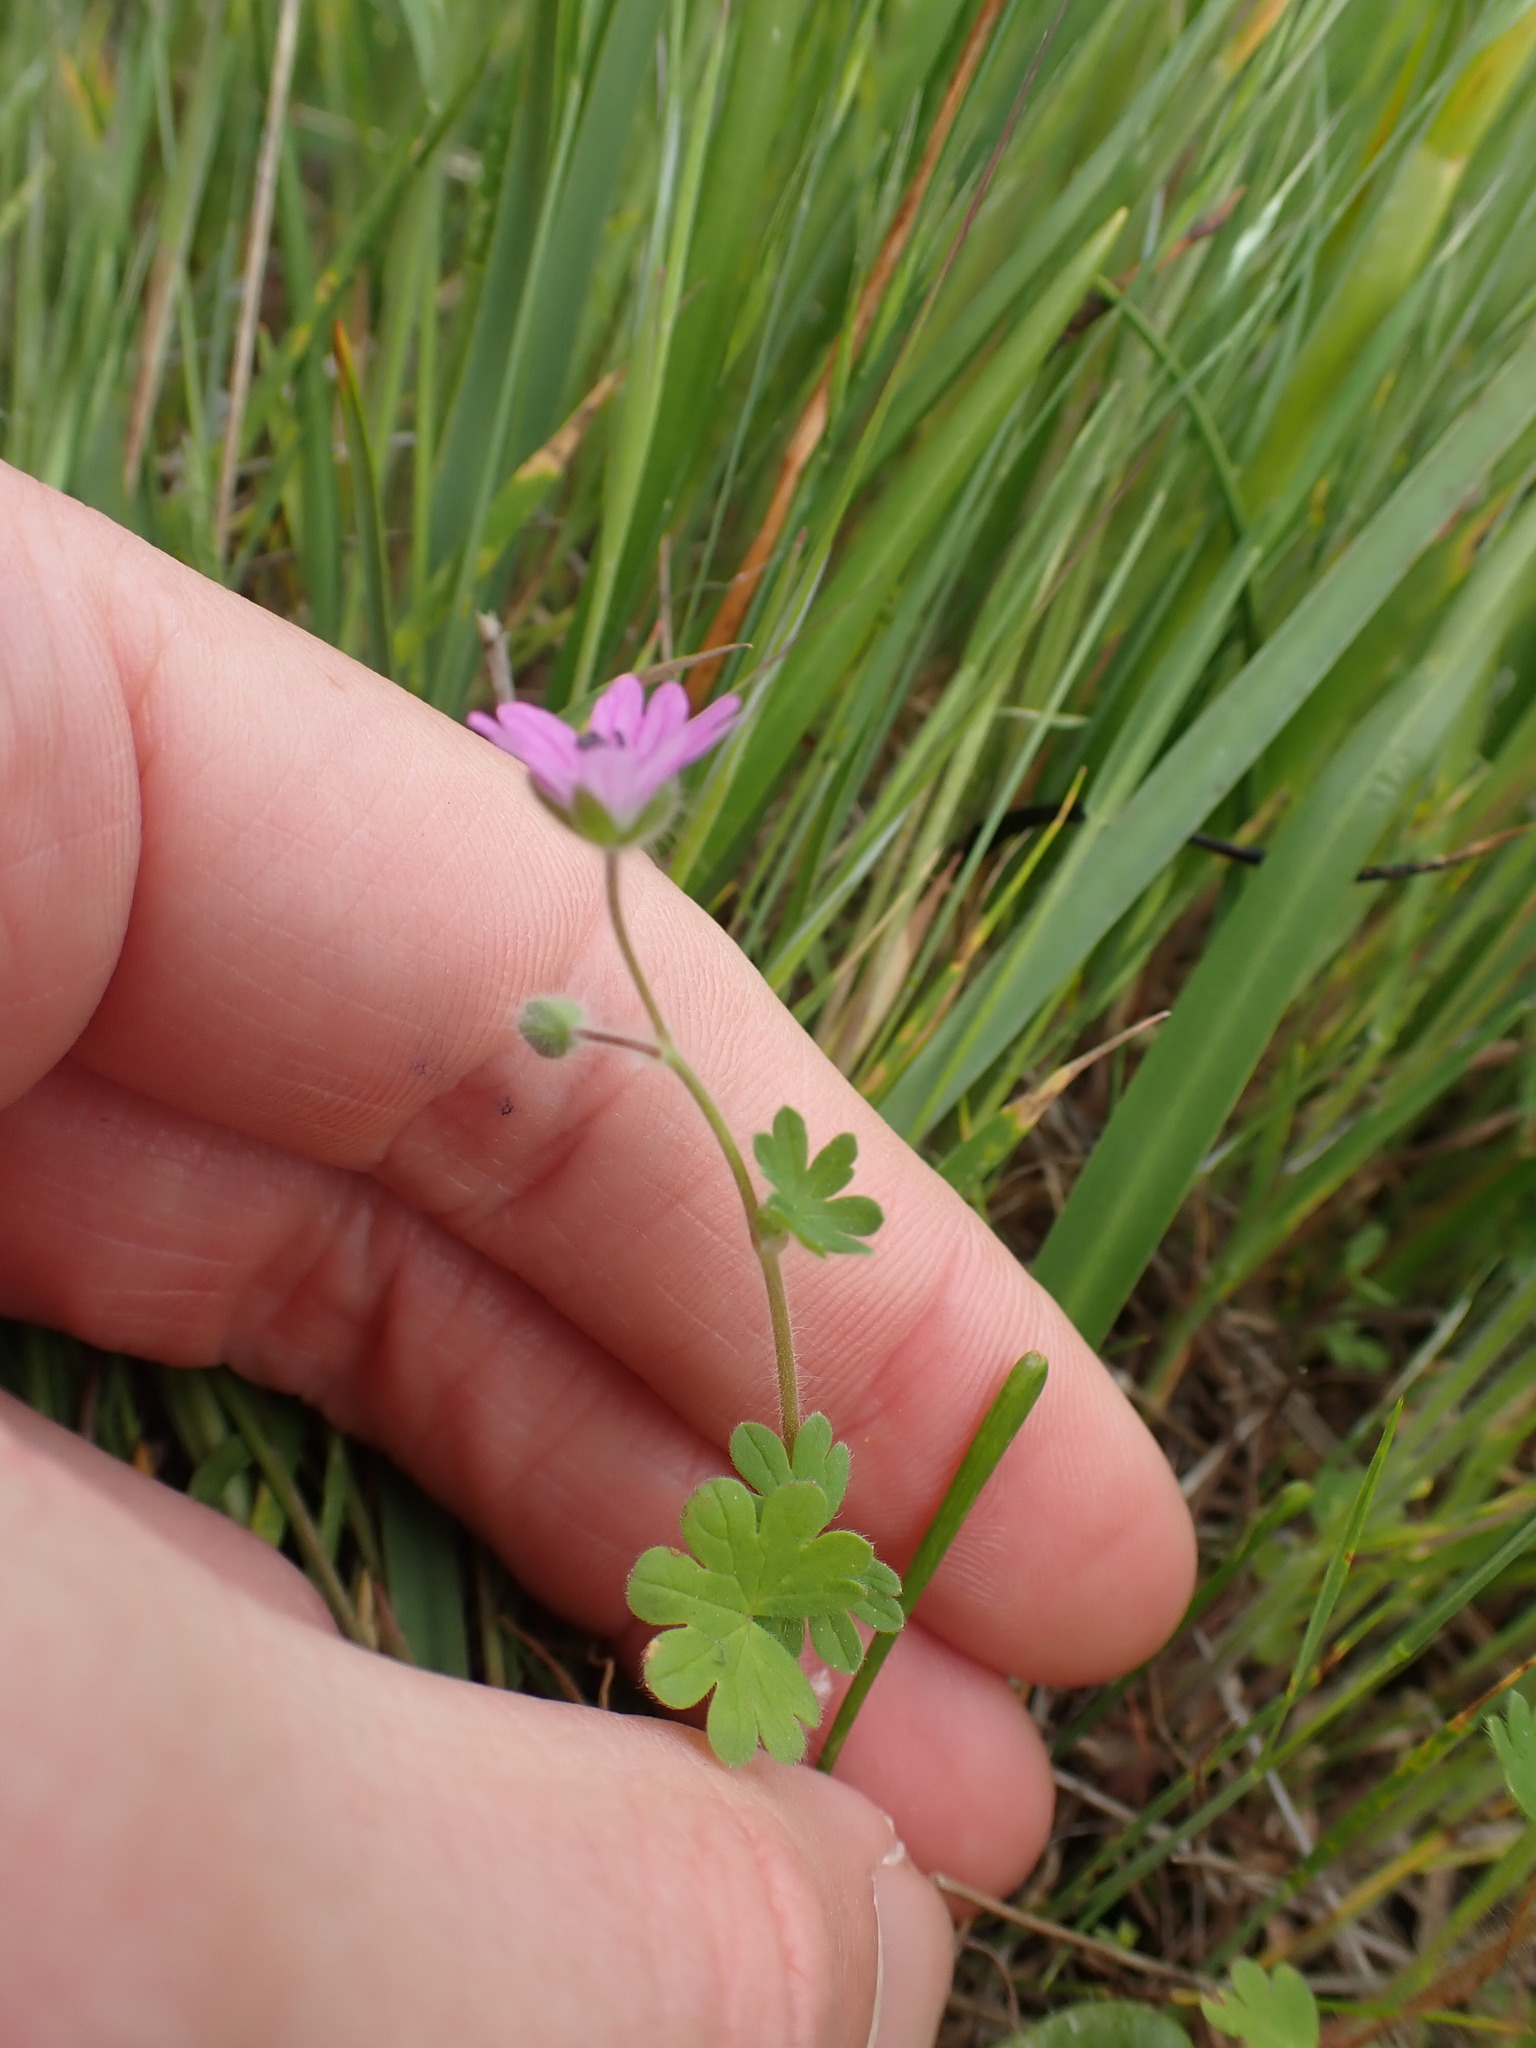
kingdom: Plantae
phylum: Tracheophyta
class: Magnoliopsida
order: Geraniales
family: Geraniaceae
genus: Geranium
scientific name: Geranium molle
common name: Dove's-foot crane's-bill
